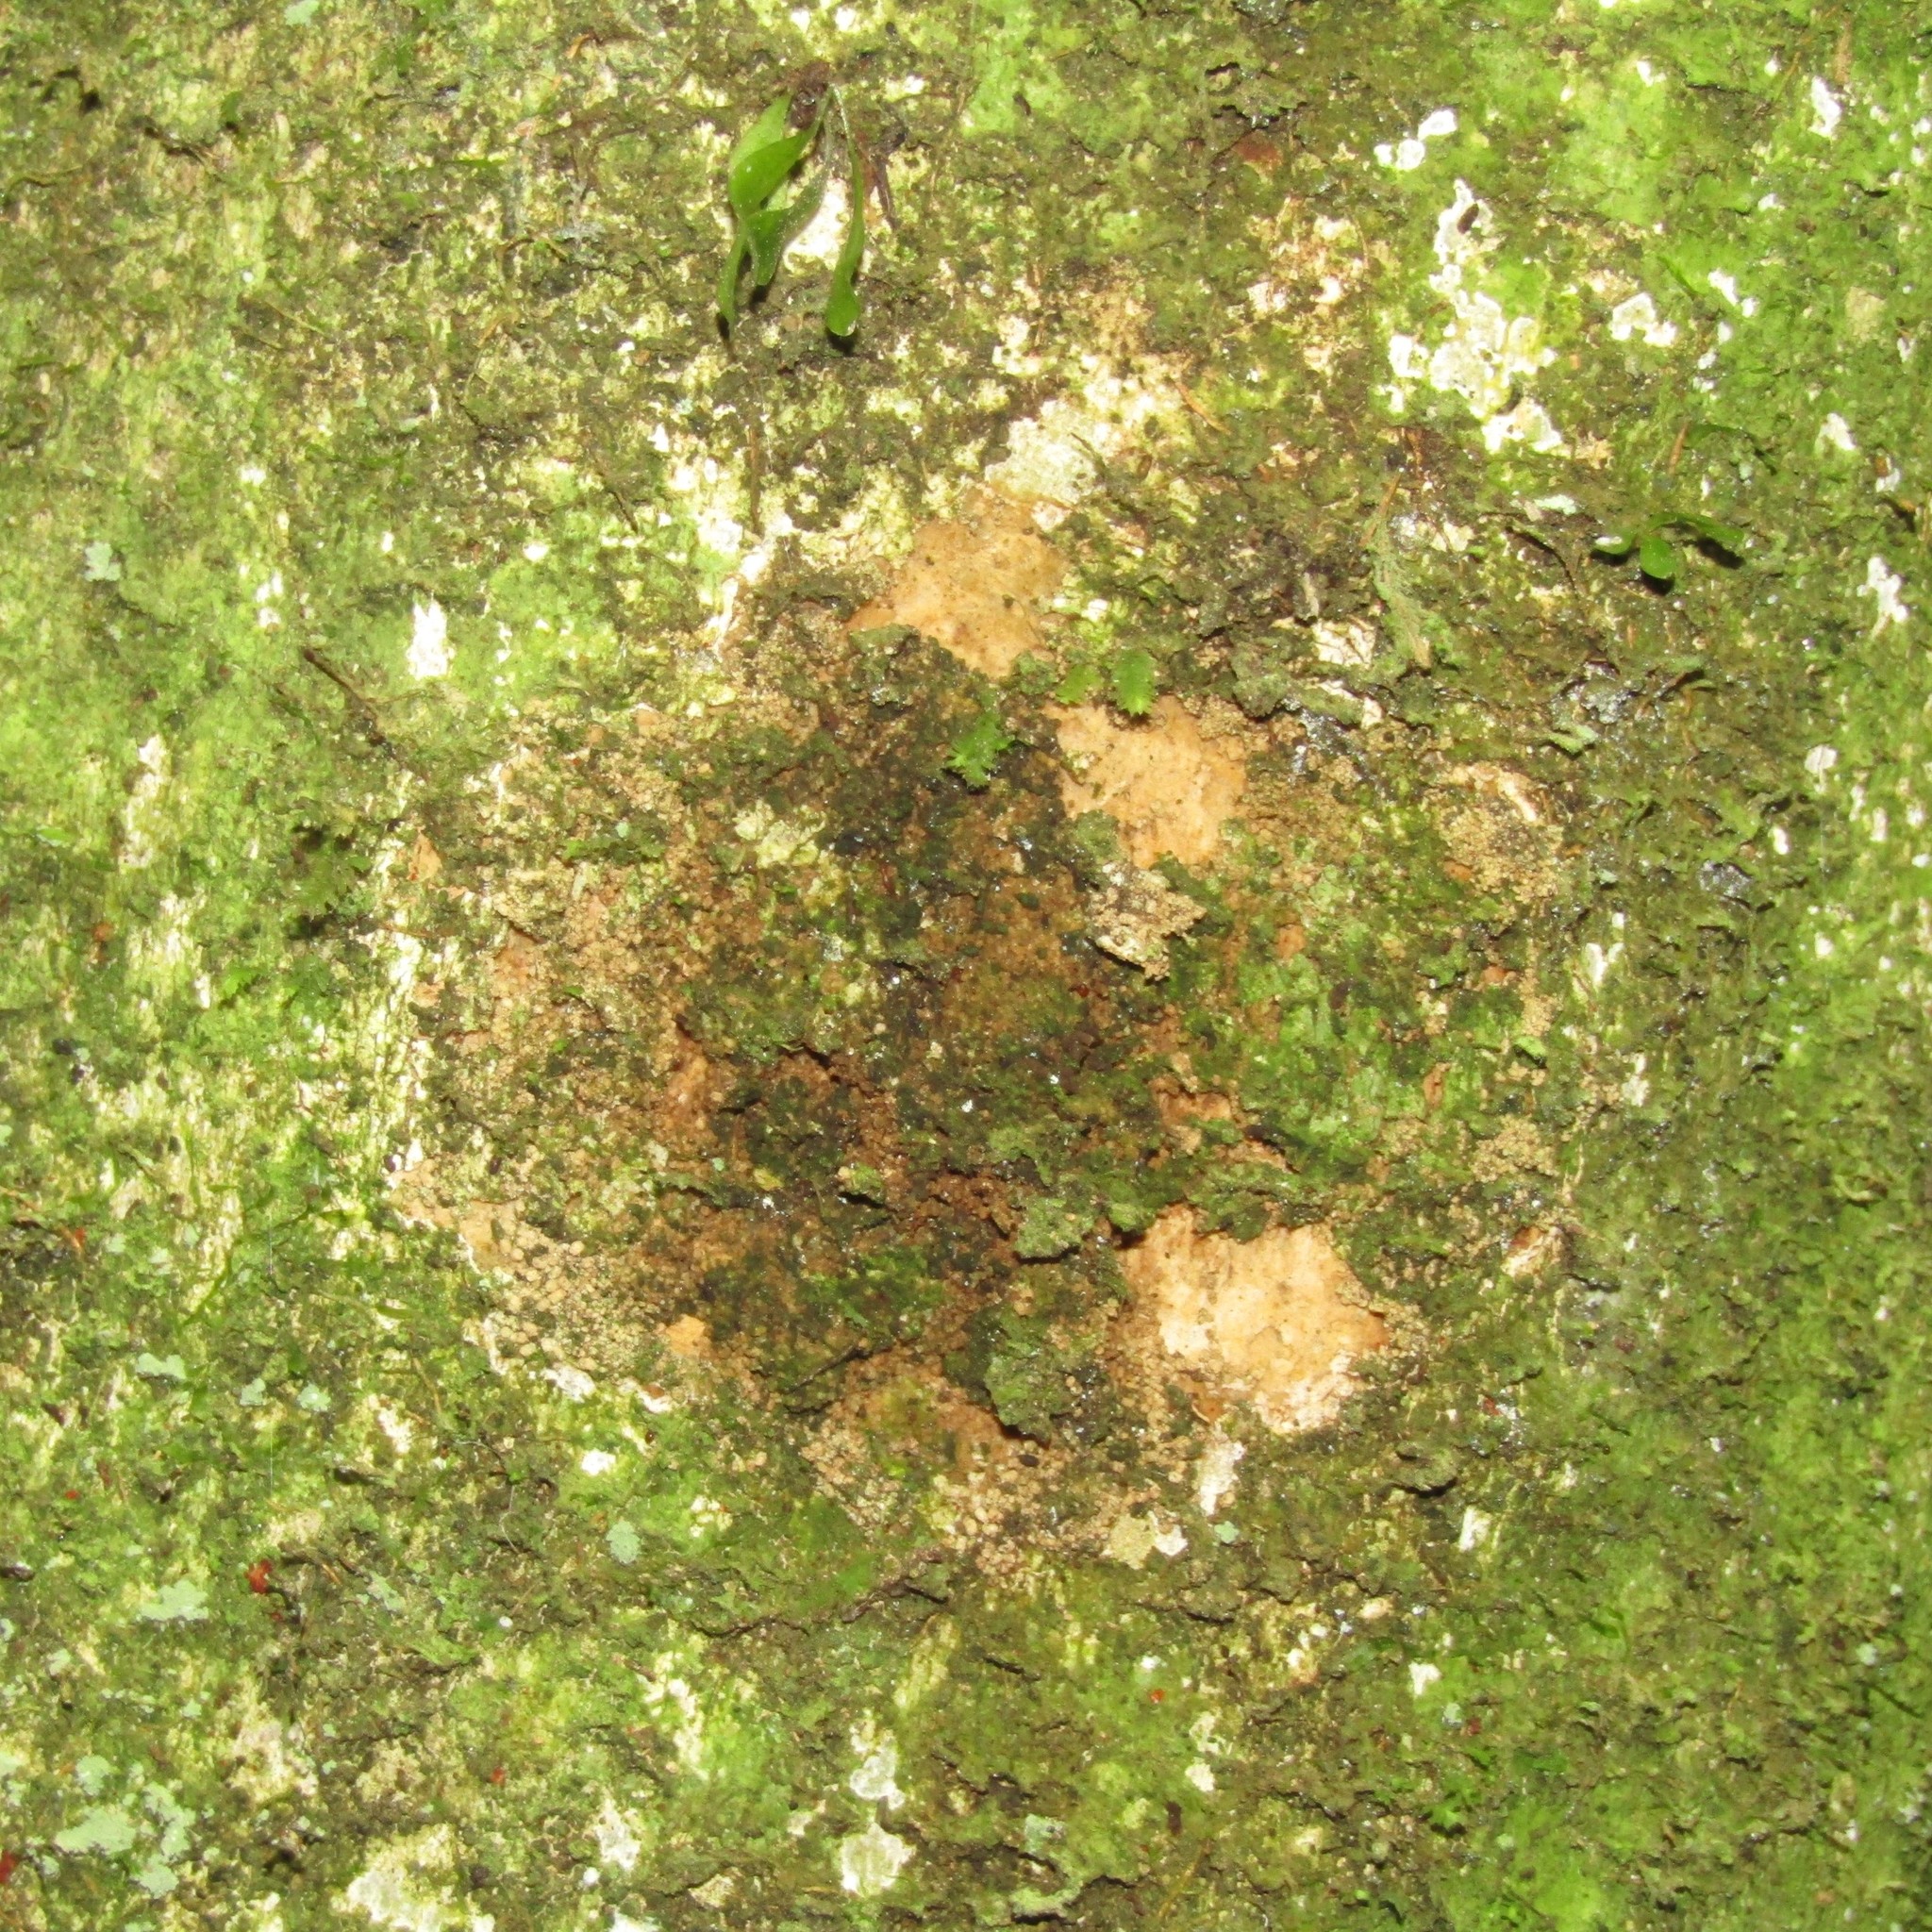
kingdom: Animalia
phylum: Arthropoda
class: Insecta
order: Lepidoptera
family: Hepialidae
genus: Aenetus
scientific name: Aenetus virescens
